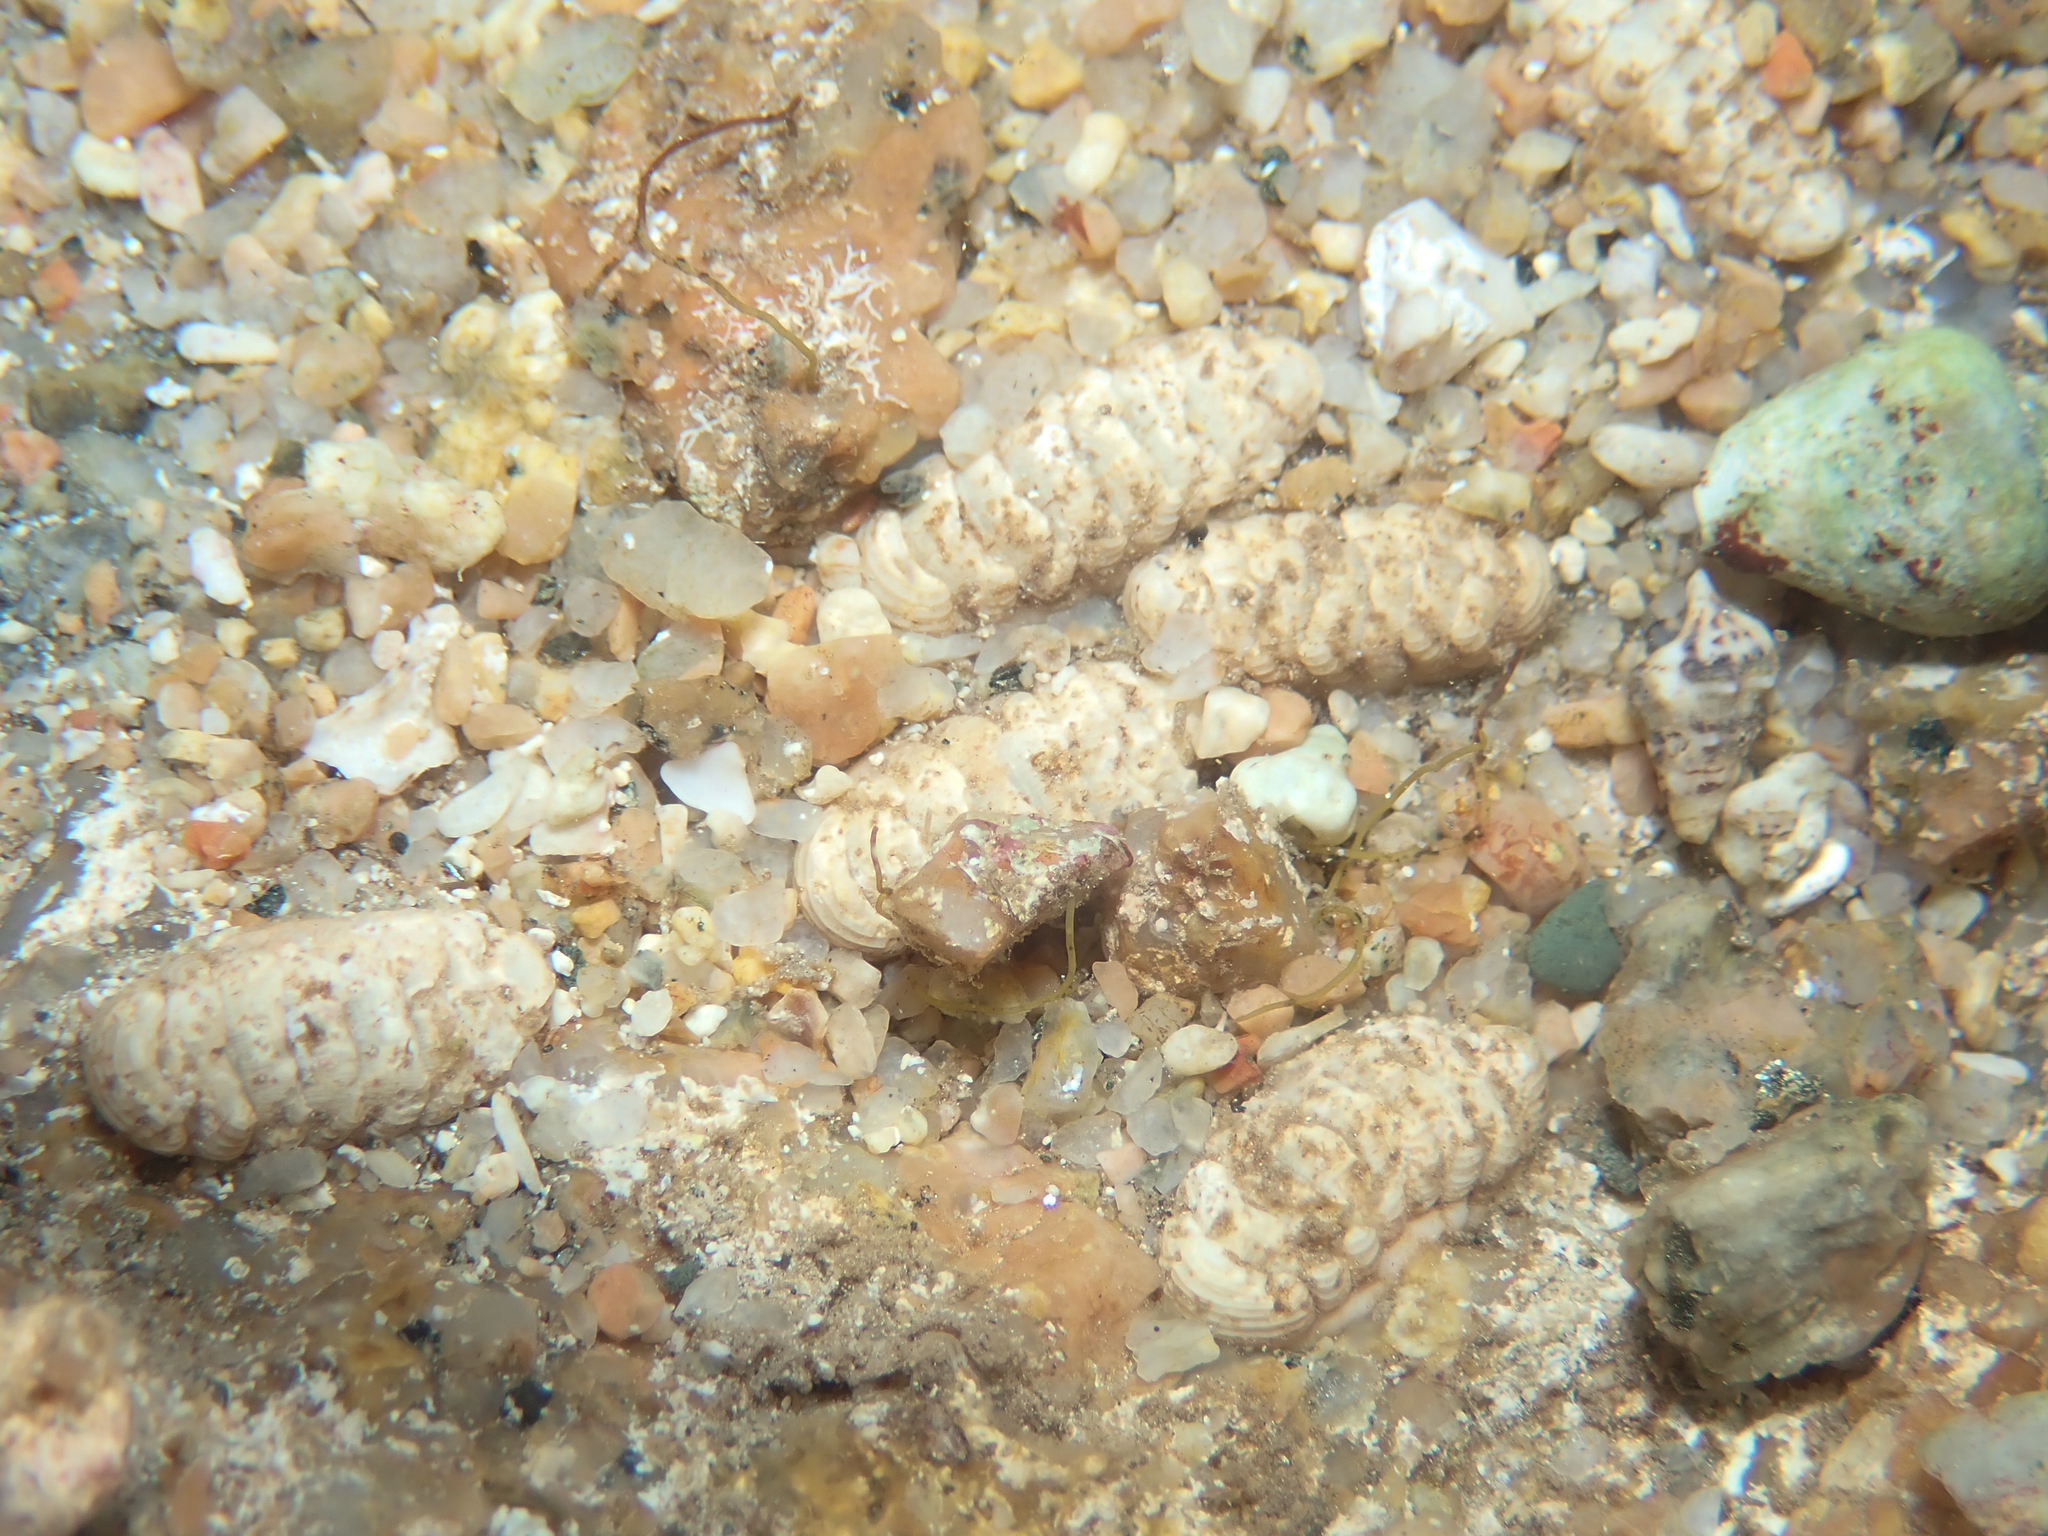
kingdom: Animalia
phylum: Mollusca
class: Polyplacophora
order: Lepidopleurida
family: Leptochitonidae
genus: Lepidopleurus
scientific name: Lepidopleurus cajetanus
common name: Ribbed chiton
